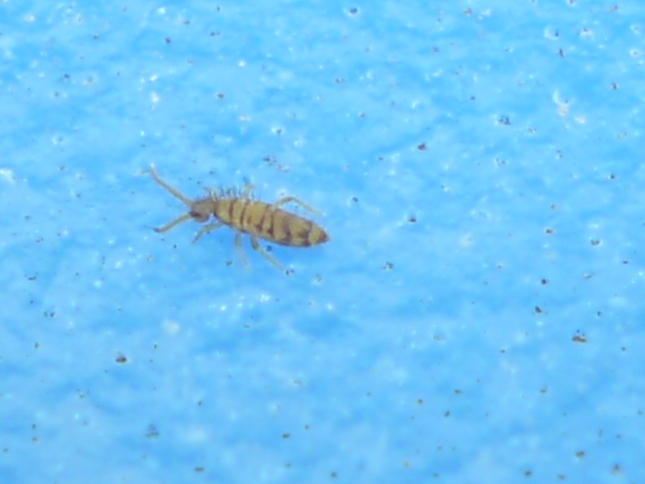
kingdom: Animalia
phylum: Arthropoda
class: Collembola
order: Entomobryomorpha
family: Entomobryidae
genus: Entomobrya
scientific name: Entomobrya multifasciata
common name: Springtail
